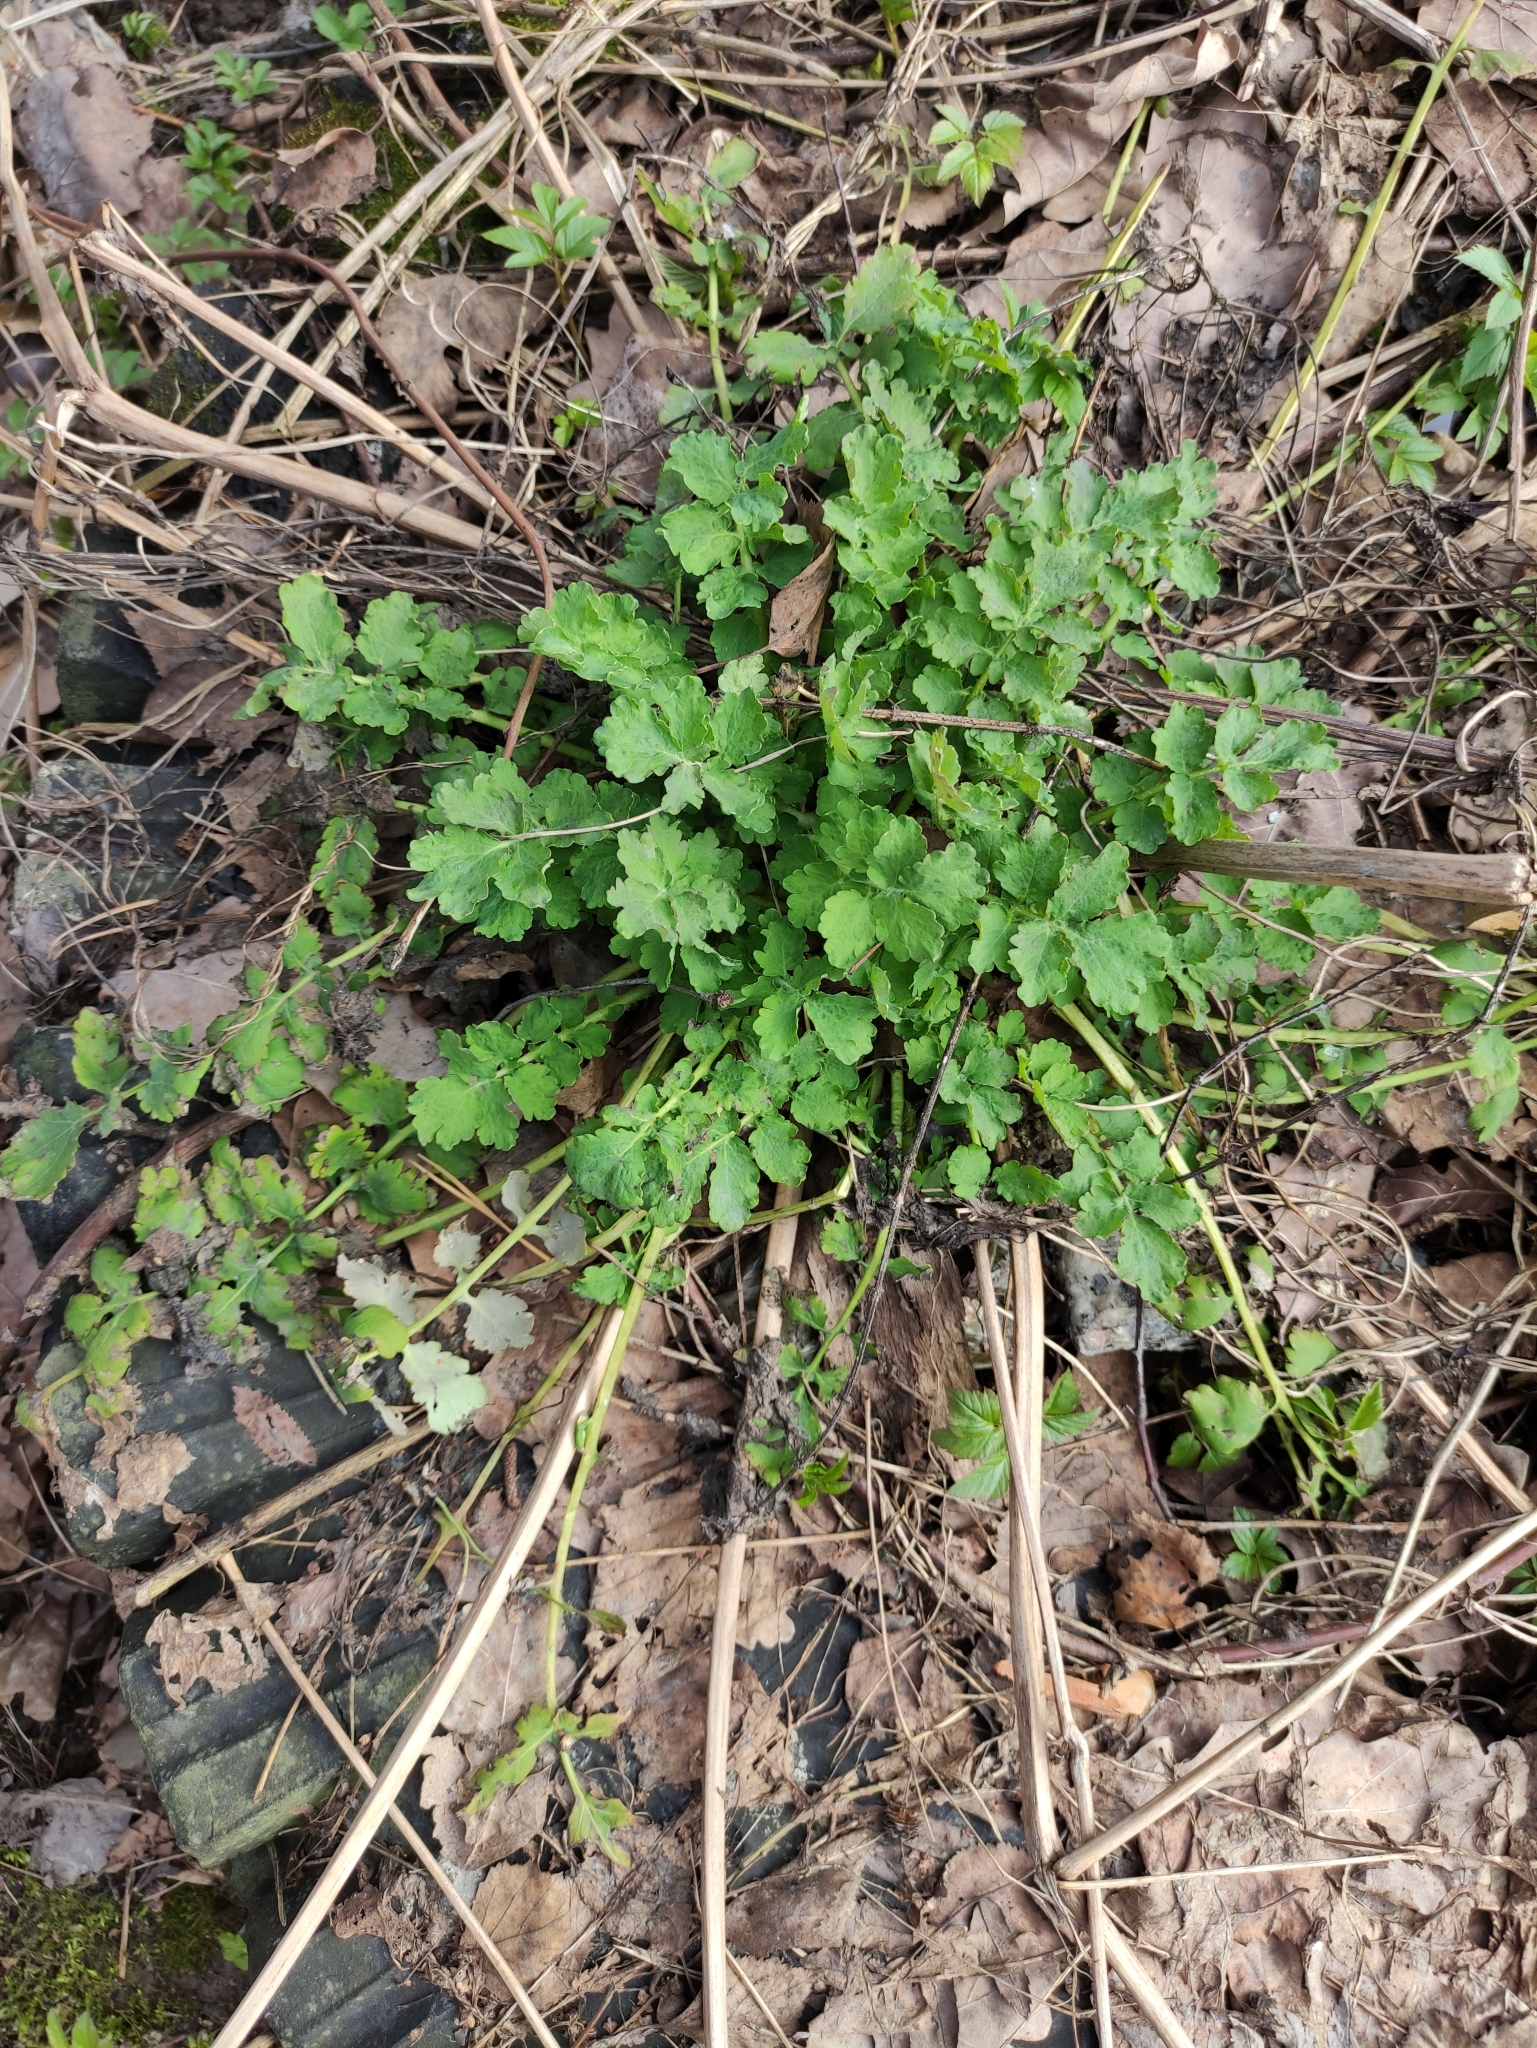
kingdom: Plantae
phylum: Tracheophyta
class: Magnoliopsida
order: Ranunculales
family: Papaveraceae
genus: Chelidonium
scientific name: Chelidonium majus
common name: Greater celandine
